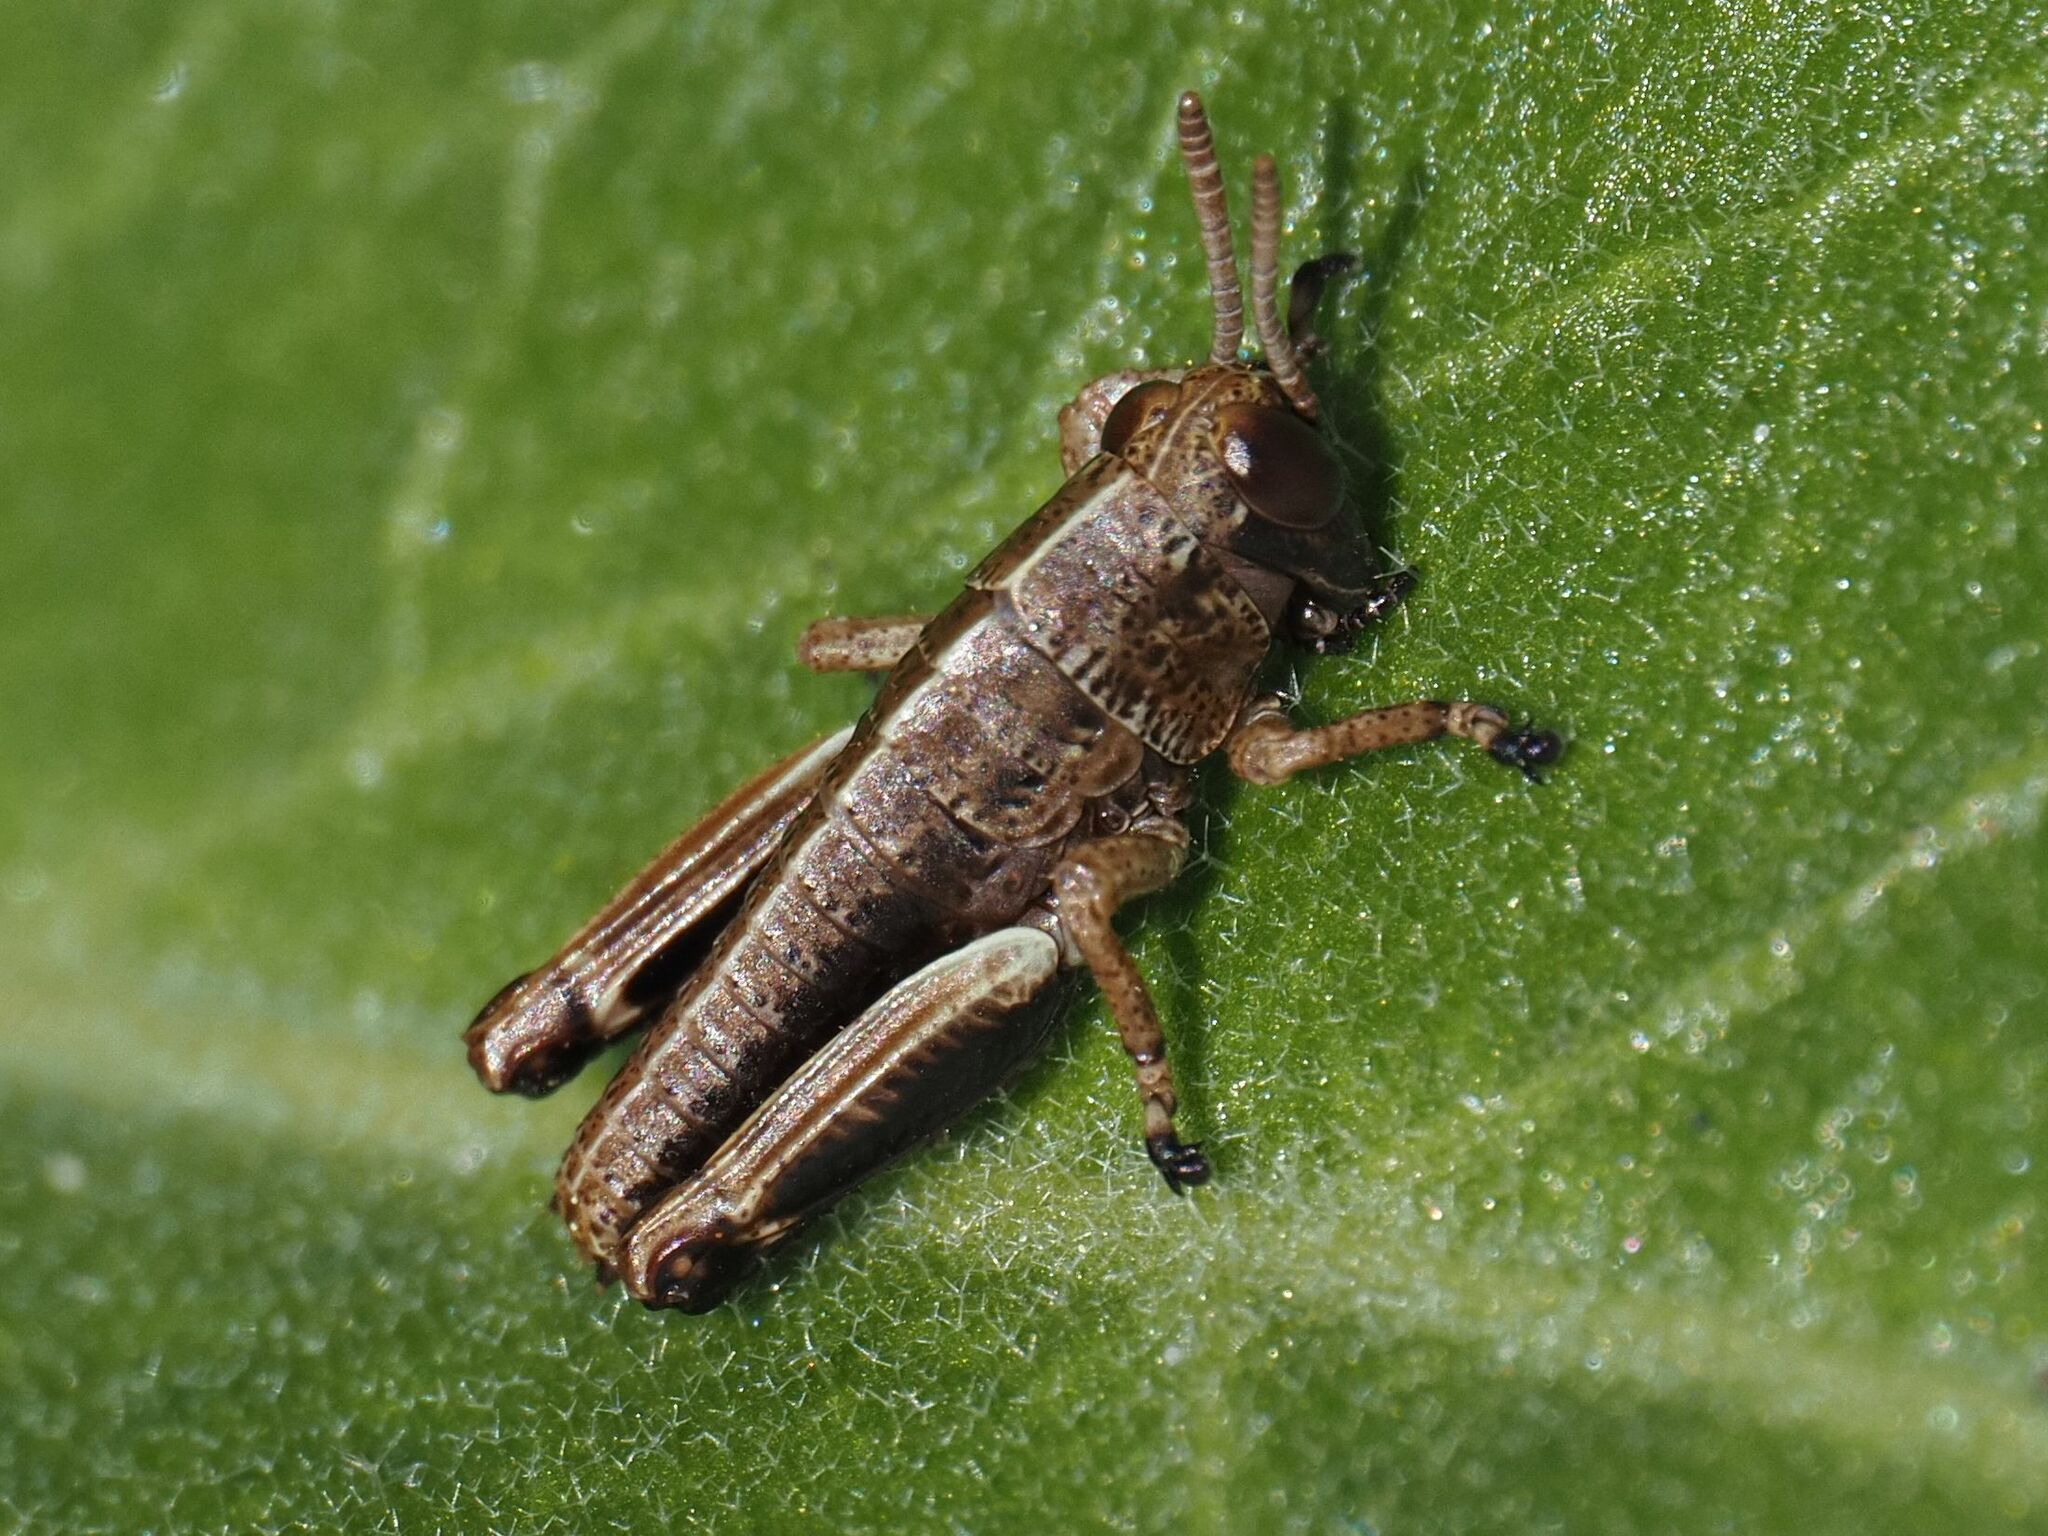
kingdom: Animalia
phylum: Arthropoda
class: Insecta
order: Orthoptera
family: Acrididae
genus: Miramella
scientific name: Miramella alpina
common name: Green mountain grasshopper
